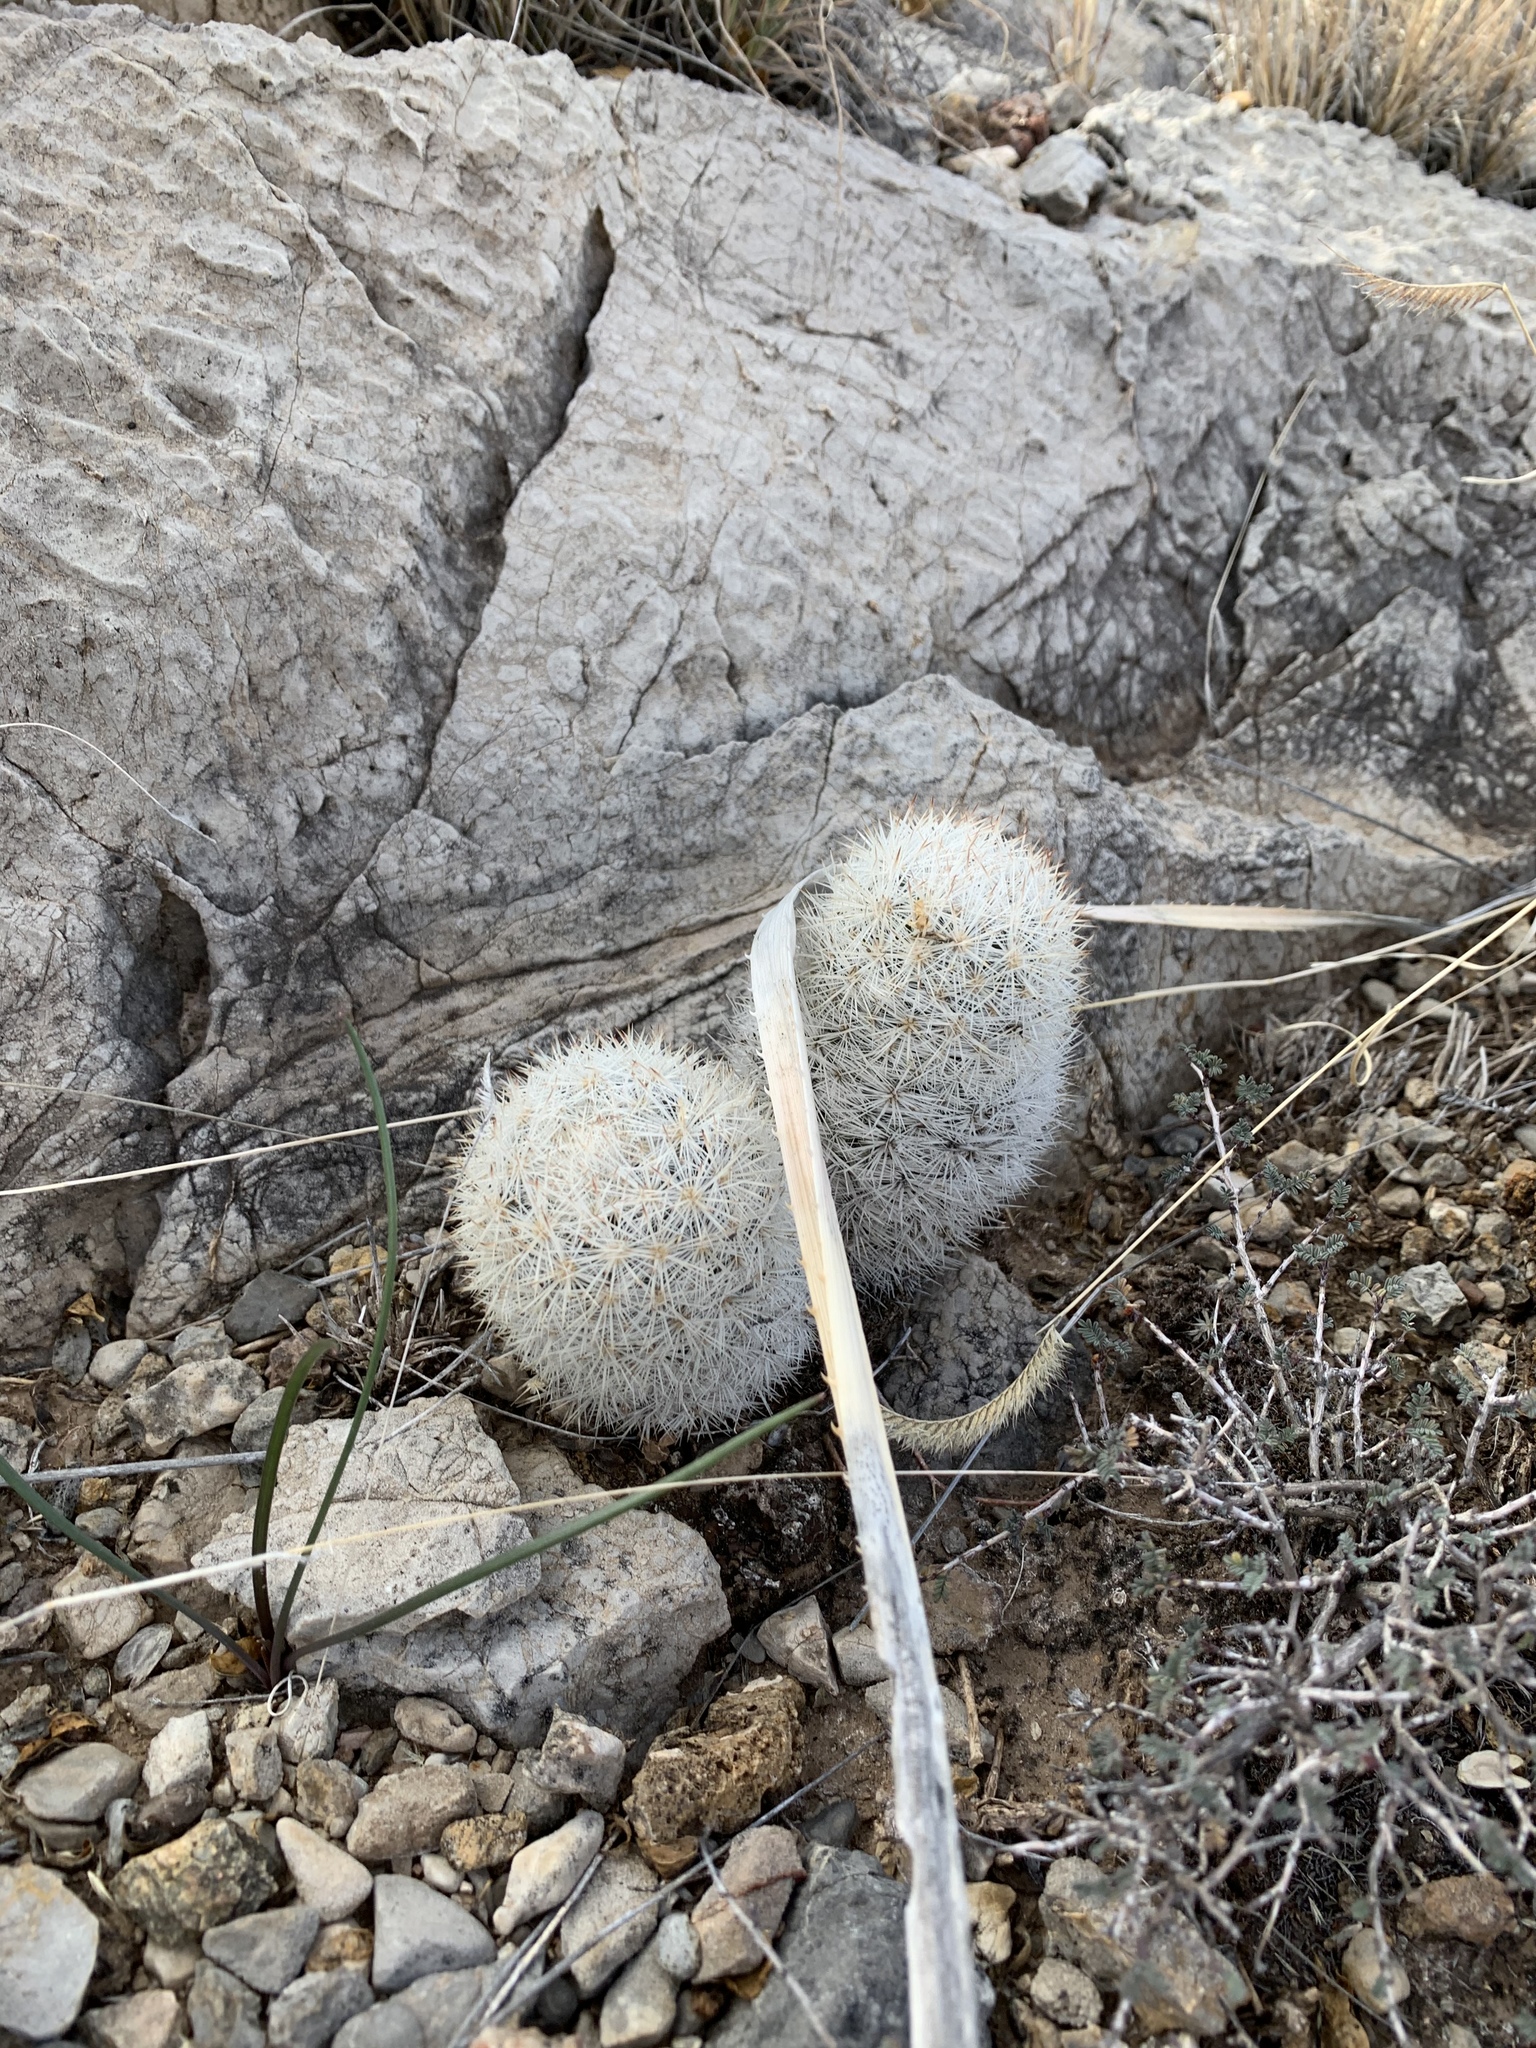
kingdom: Plantae
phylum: Tracheophyta
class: Magnoliopsida
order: Caryophyllales
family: Cactaceae
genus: Pelecyphora
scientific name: Pelecyphora sneedii
